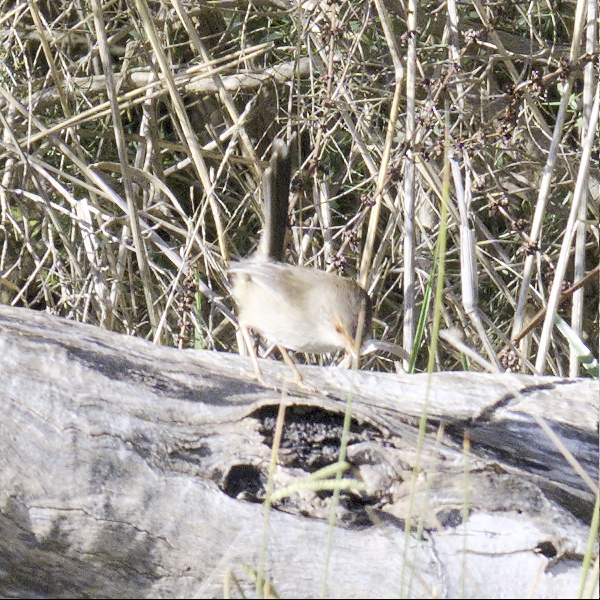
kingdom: Animalia
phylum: Chordata
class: Aves
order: Passeriformes
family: Maluridae
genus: Malurus
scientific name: Malurus cyaneus
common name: Superb fairywren
